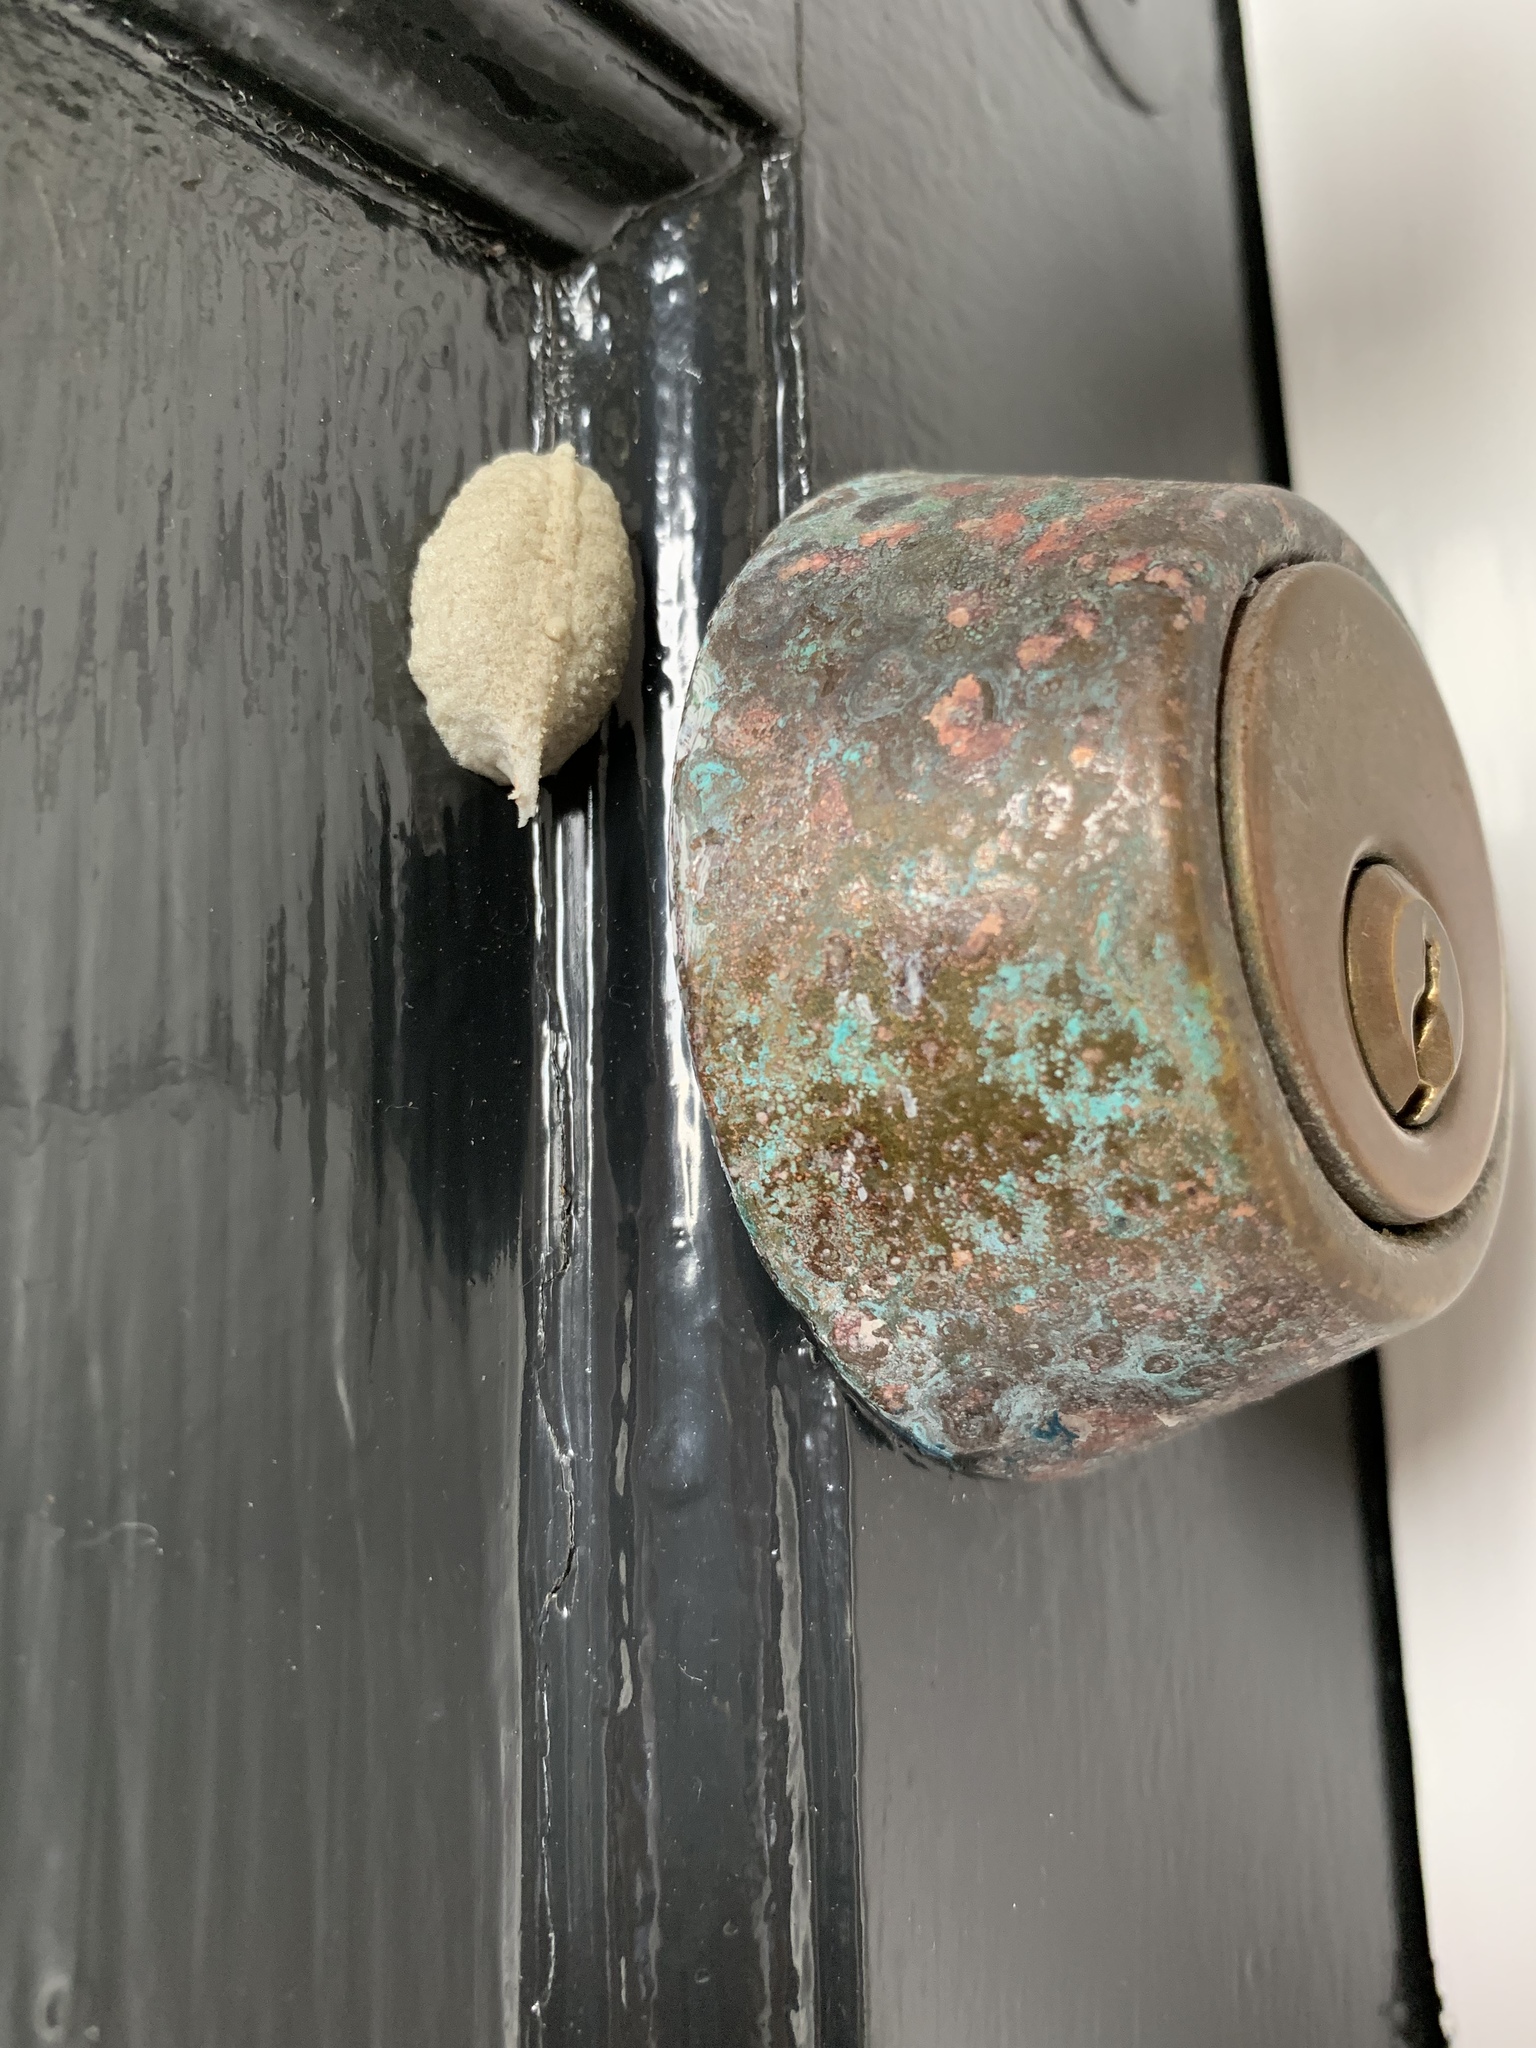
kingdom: Animalia
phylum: Arthropoda
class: Insecta
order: Mantodea
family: Miomantidae
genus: Miomantis
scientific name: Miomantis caffra
